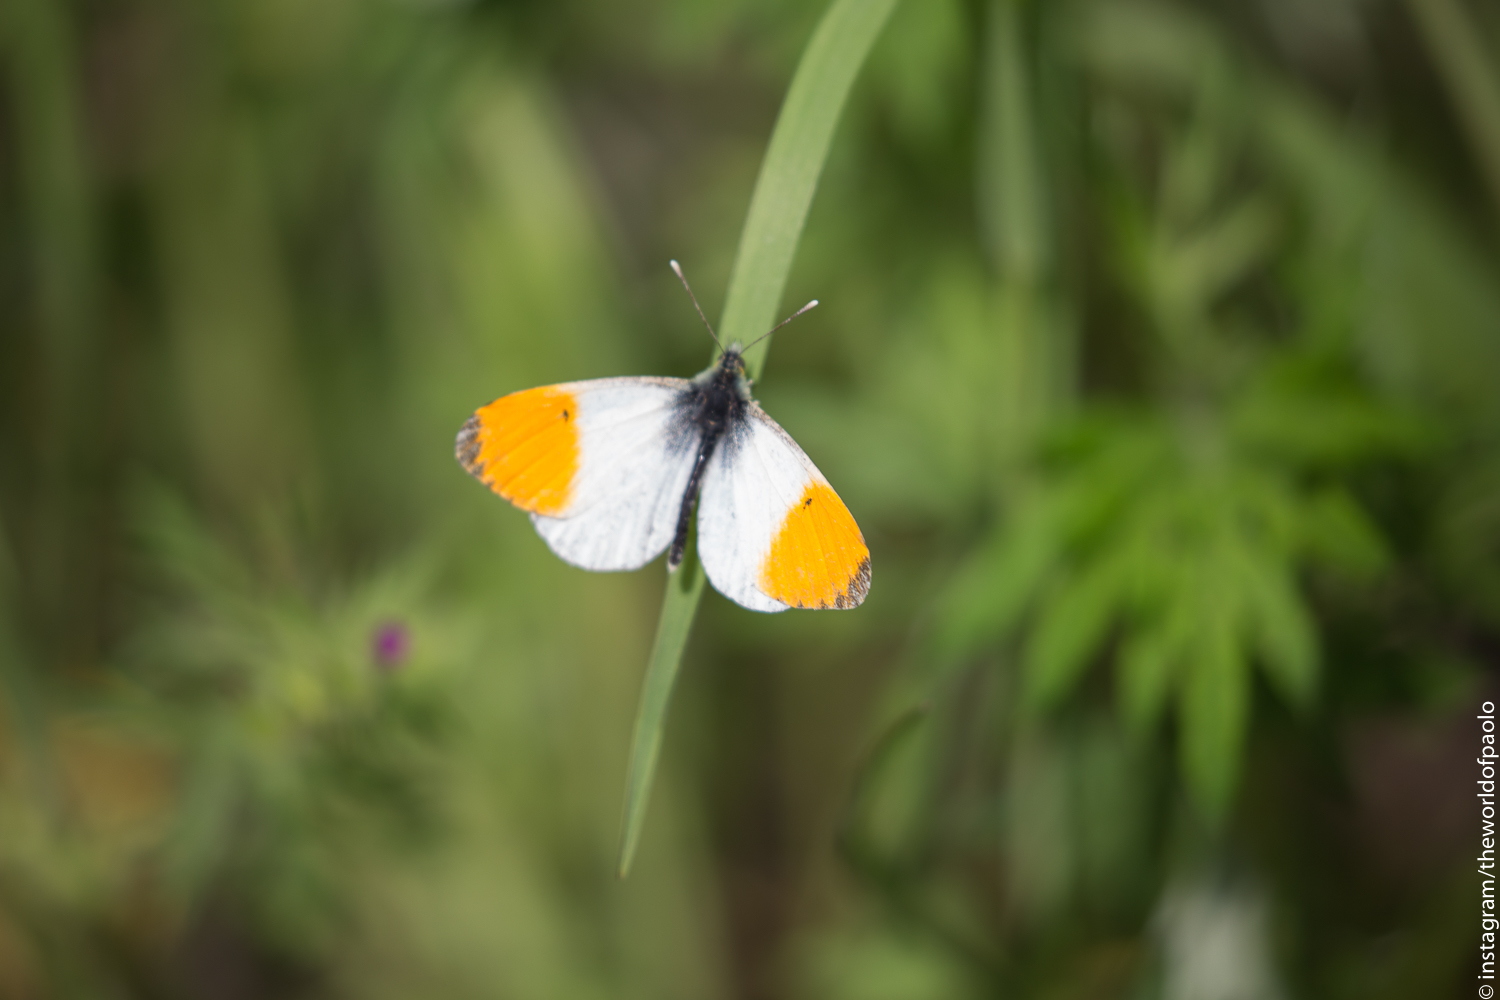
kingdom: Animalia
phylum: Arthropoda
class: Insecta
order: Lepidoptera
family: Pieridae
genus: Anthocharis
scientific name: Anthocharis cardamines
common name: Orange-tip
